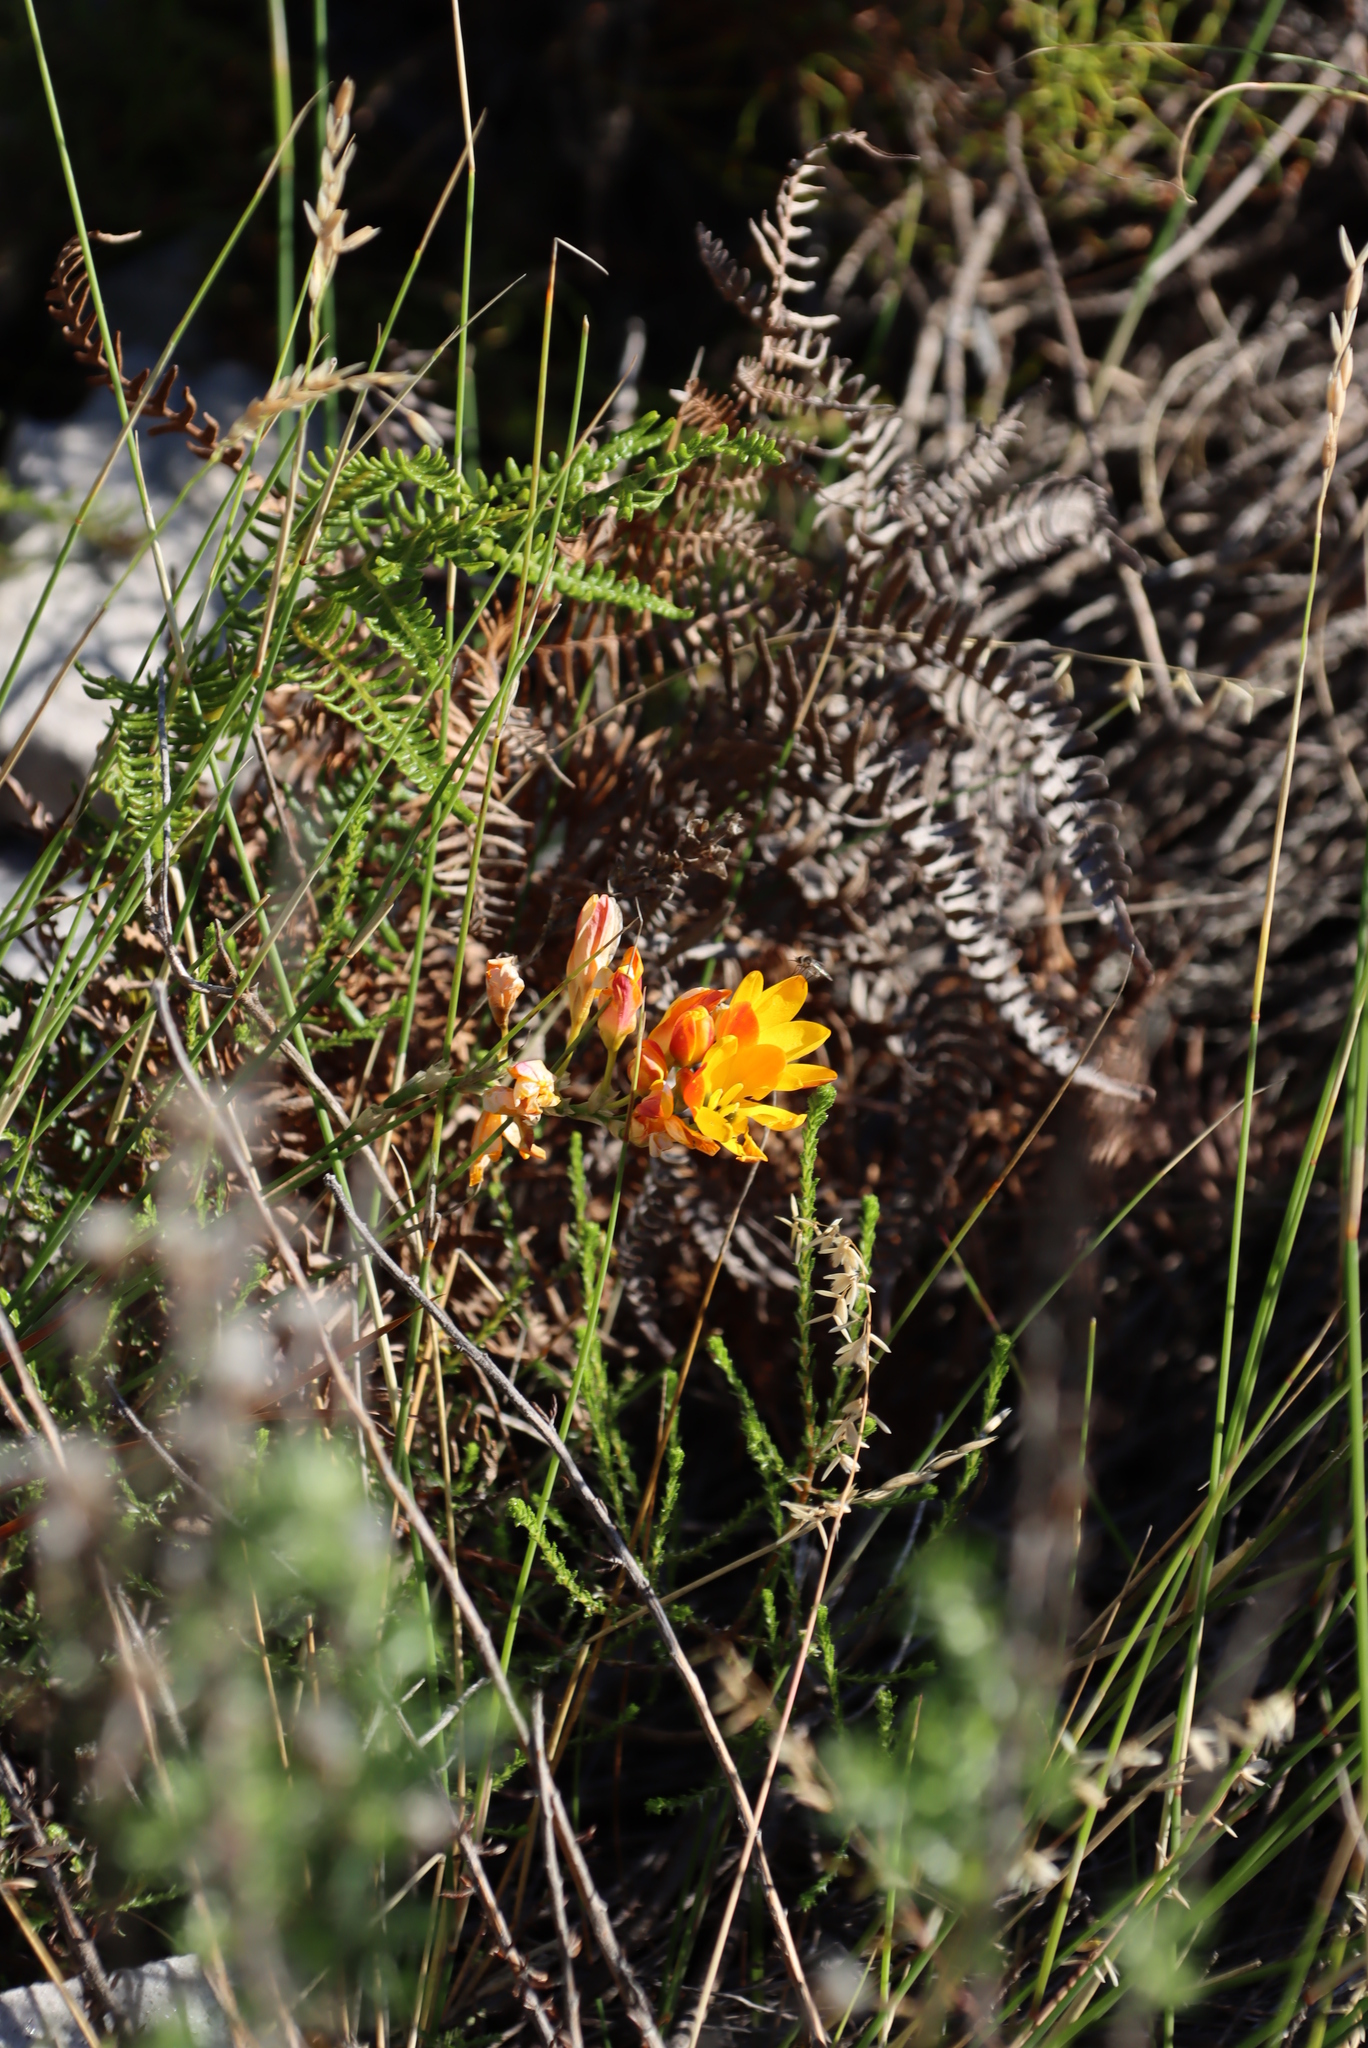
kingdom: Plantae
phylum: Tracheophyta
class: Liliopsida
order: Asparagales
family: Iridaceae
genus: Ixia
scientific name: Ixia dubia
